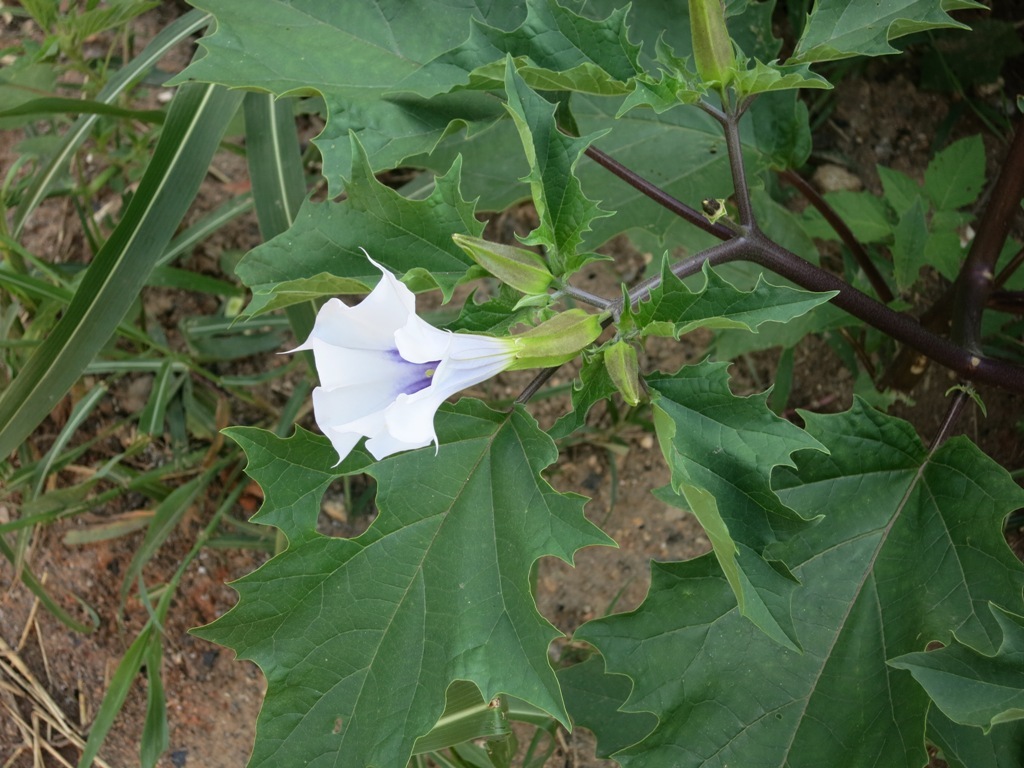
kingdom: Plantae
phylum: Tracheophyta
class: Magnoliopsida
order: Solanales
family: Solanaceae
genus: Datura
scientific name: Datura stramonium
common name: Thorn-apple
